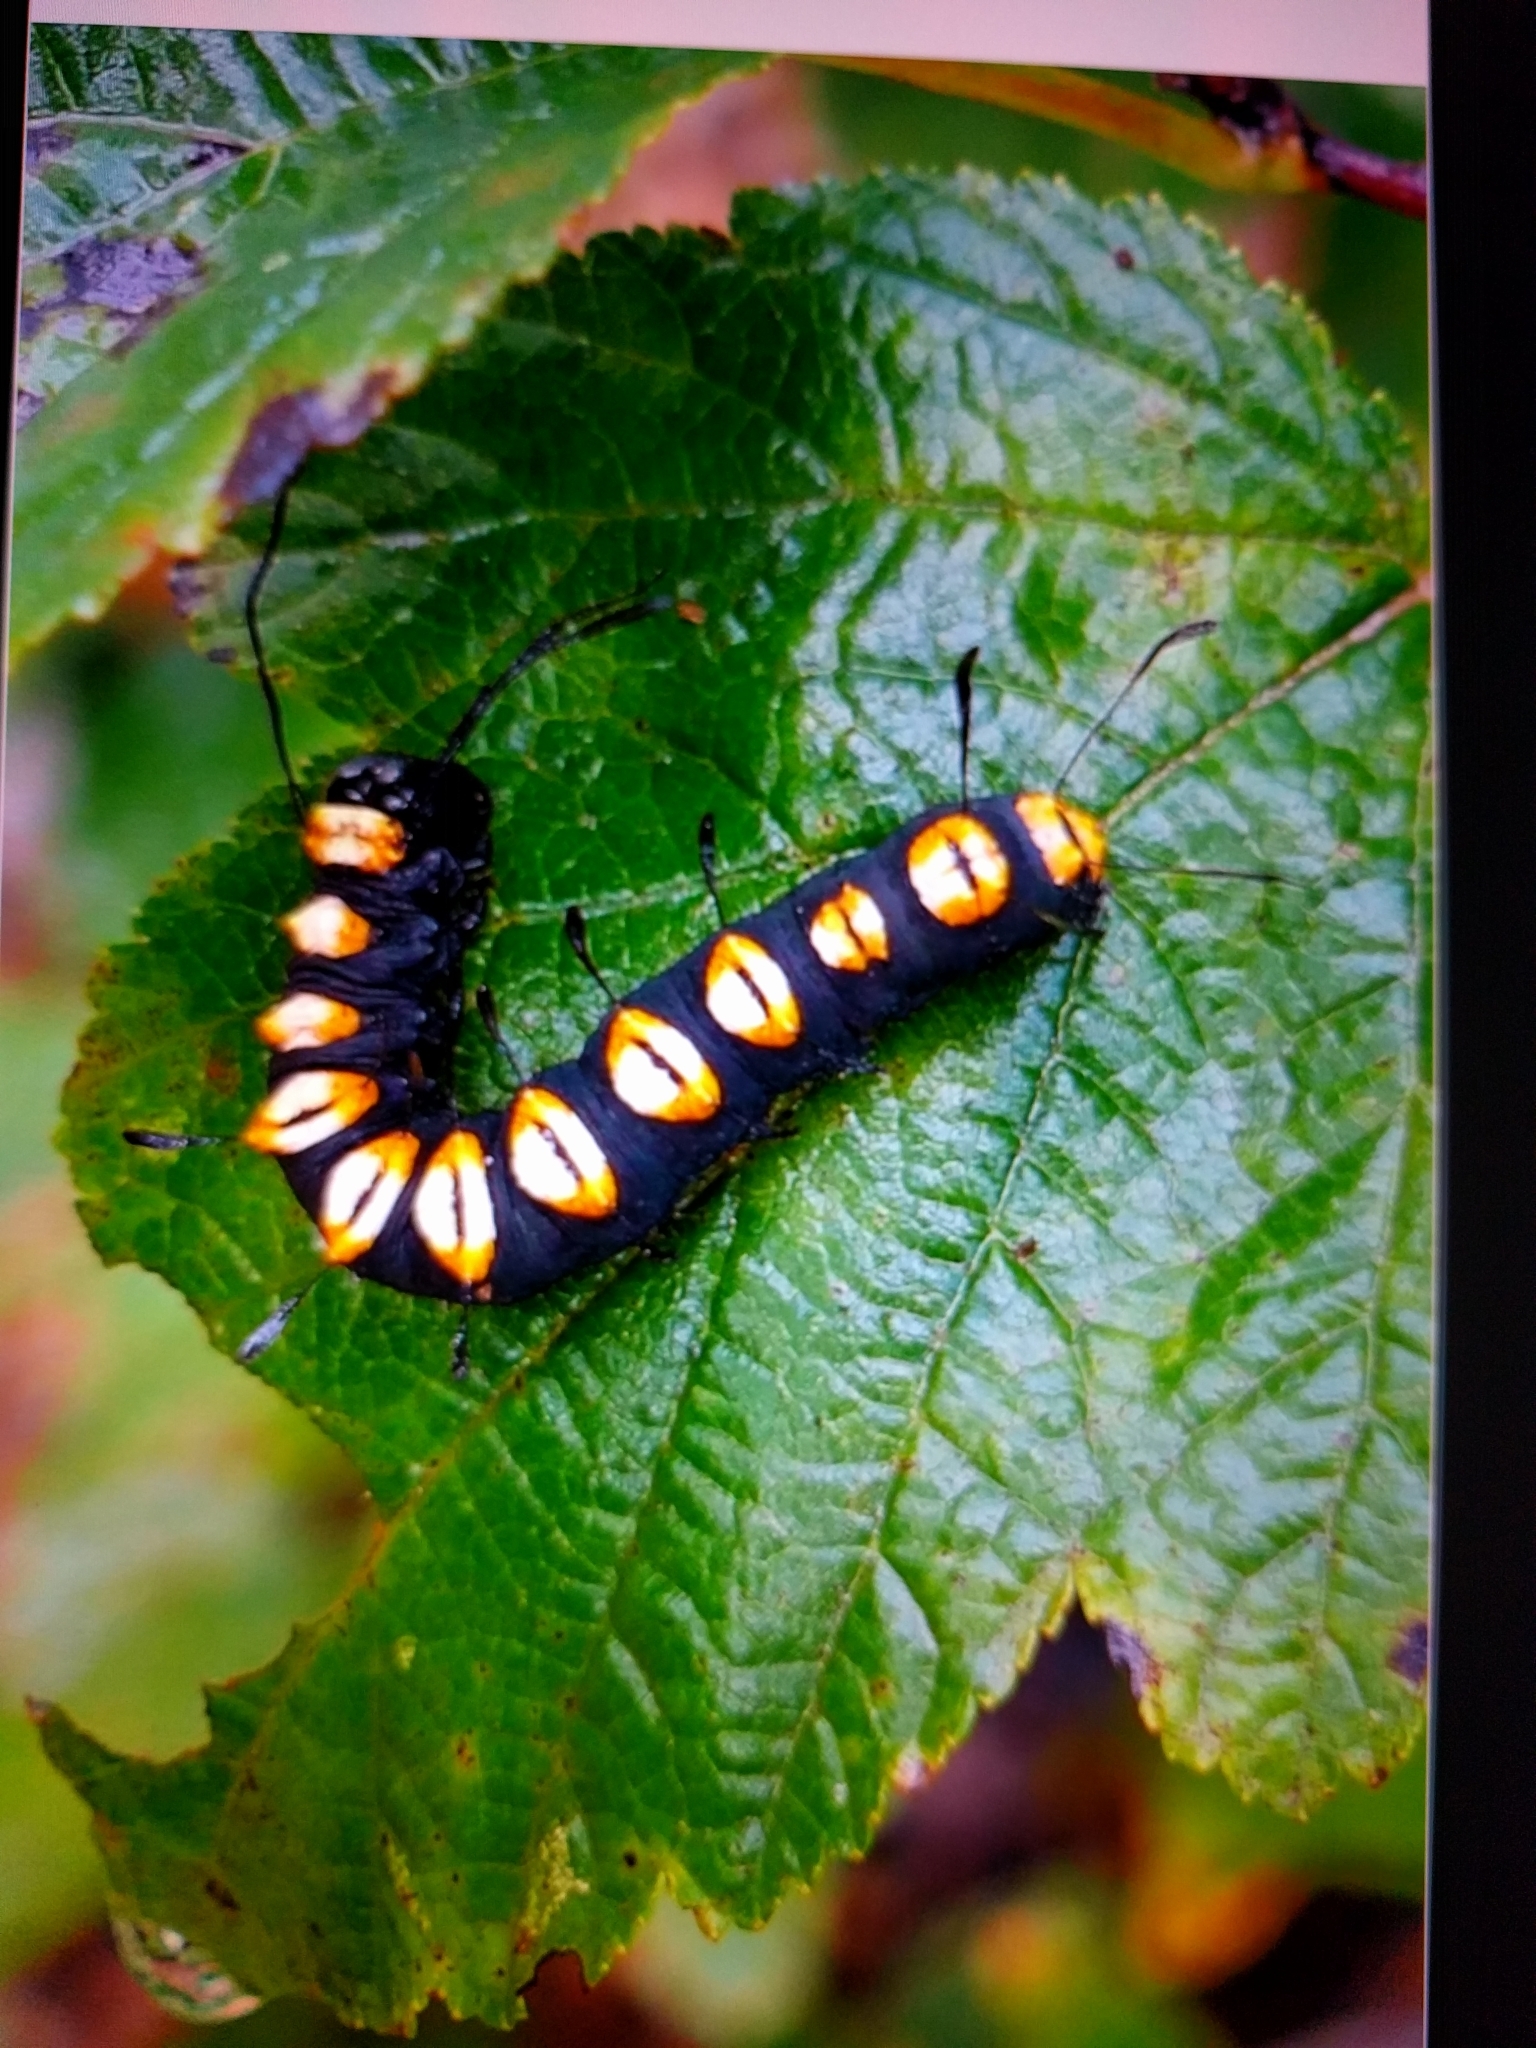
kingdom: Animalia
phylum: Arthropoda
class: Insecta
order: Lepidoptera
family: Noctuidae
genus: Acronicta
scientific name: Acronicta funeralis
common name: Funerary dagger
